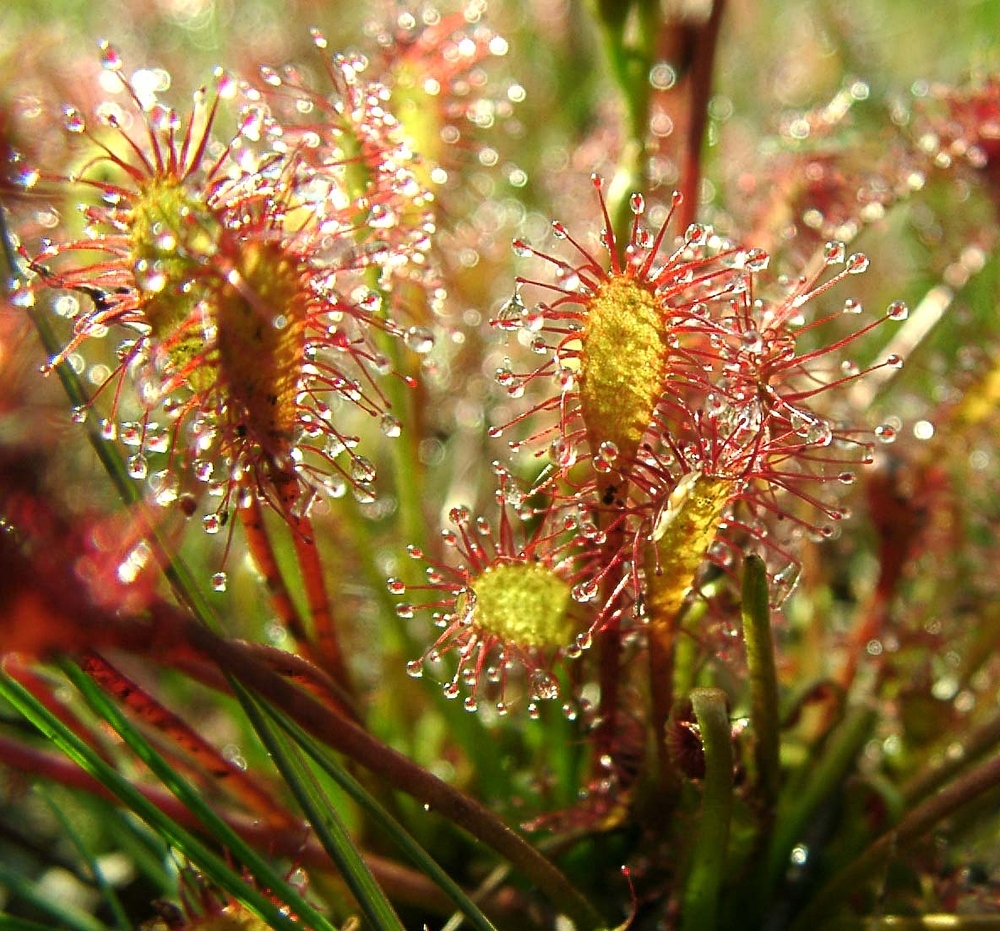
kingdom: Plantae
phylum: Tracheophyta
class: Magnoliopsida
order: Caryophyllales
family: Droseraceae
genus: Drosera
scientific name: Drosera intermedia
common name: Oblong-leaved sundew
